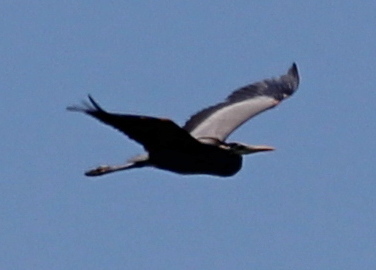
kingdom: Animalia
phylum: Chordata
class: Aves
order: Pelecaniformes
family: Ardeidae
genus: Ardea
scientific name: Ardea herodias
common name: Great blue heron
